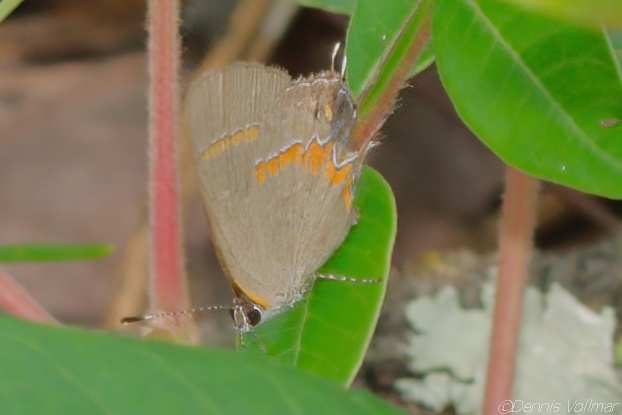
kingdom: Animalia
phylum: Arthropoda
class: Insecta
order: Lepidoptera
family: Lycaenidae
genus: Calycopis
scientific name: Calycopis cecrops
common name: Red-banded hairstreak
